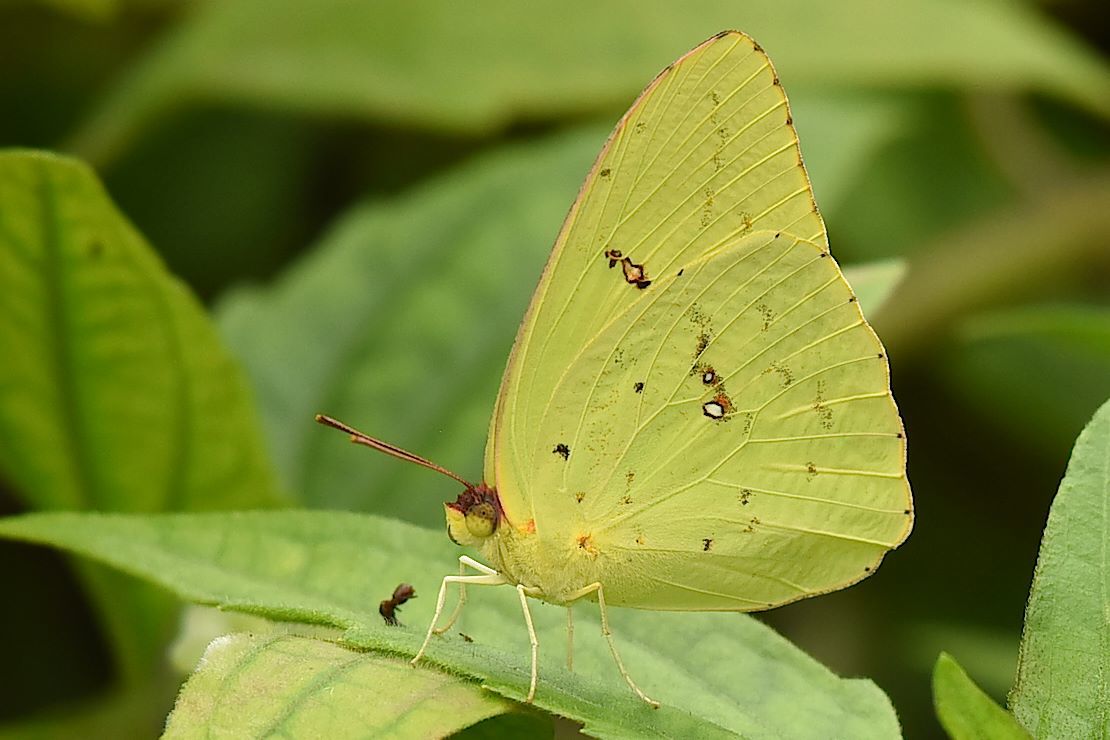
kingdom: Animalia
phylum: Arthropoda
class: Insecta
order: Lepidoptera
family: Pieridae
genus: Phoebis
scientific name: Phoebis sennae
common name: Cloudless sulphur
